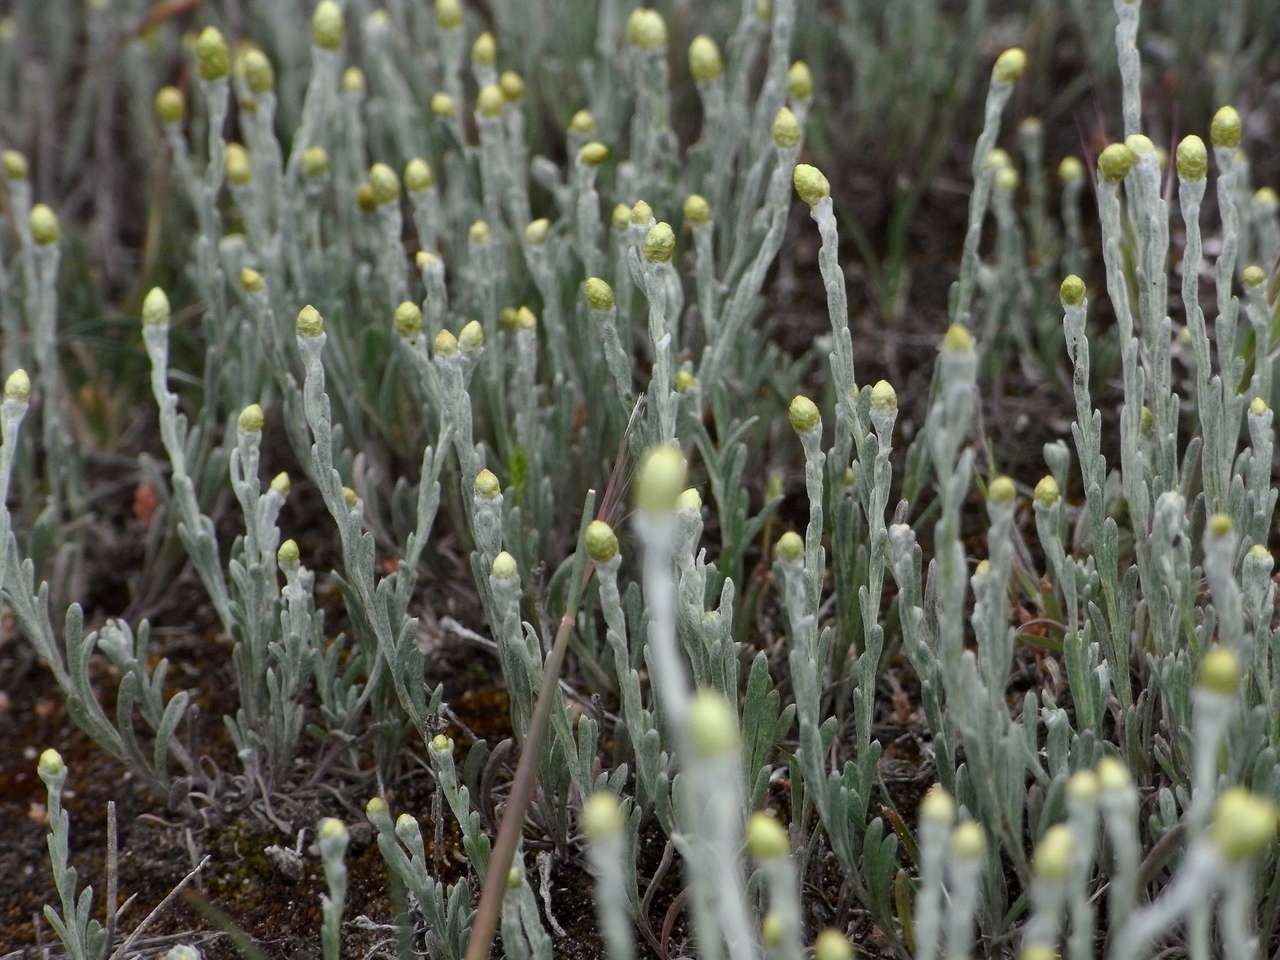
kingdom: Plantae
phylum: Tracheophyta
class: Magnoliopsida
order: Asterales
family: Asteraceae
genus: Siloxerus
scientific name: Siloxerus tomentosus
